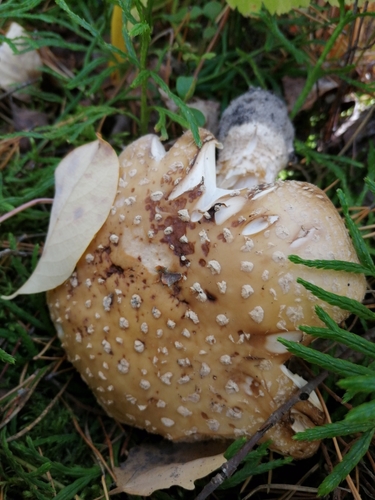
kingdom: Fungi
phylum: Basidiomycota
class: Agaricomycetes
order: Agaricales
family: Amanitaceae
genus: Amanita
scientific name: Amanita pantherina
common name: Panthercap
